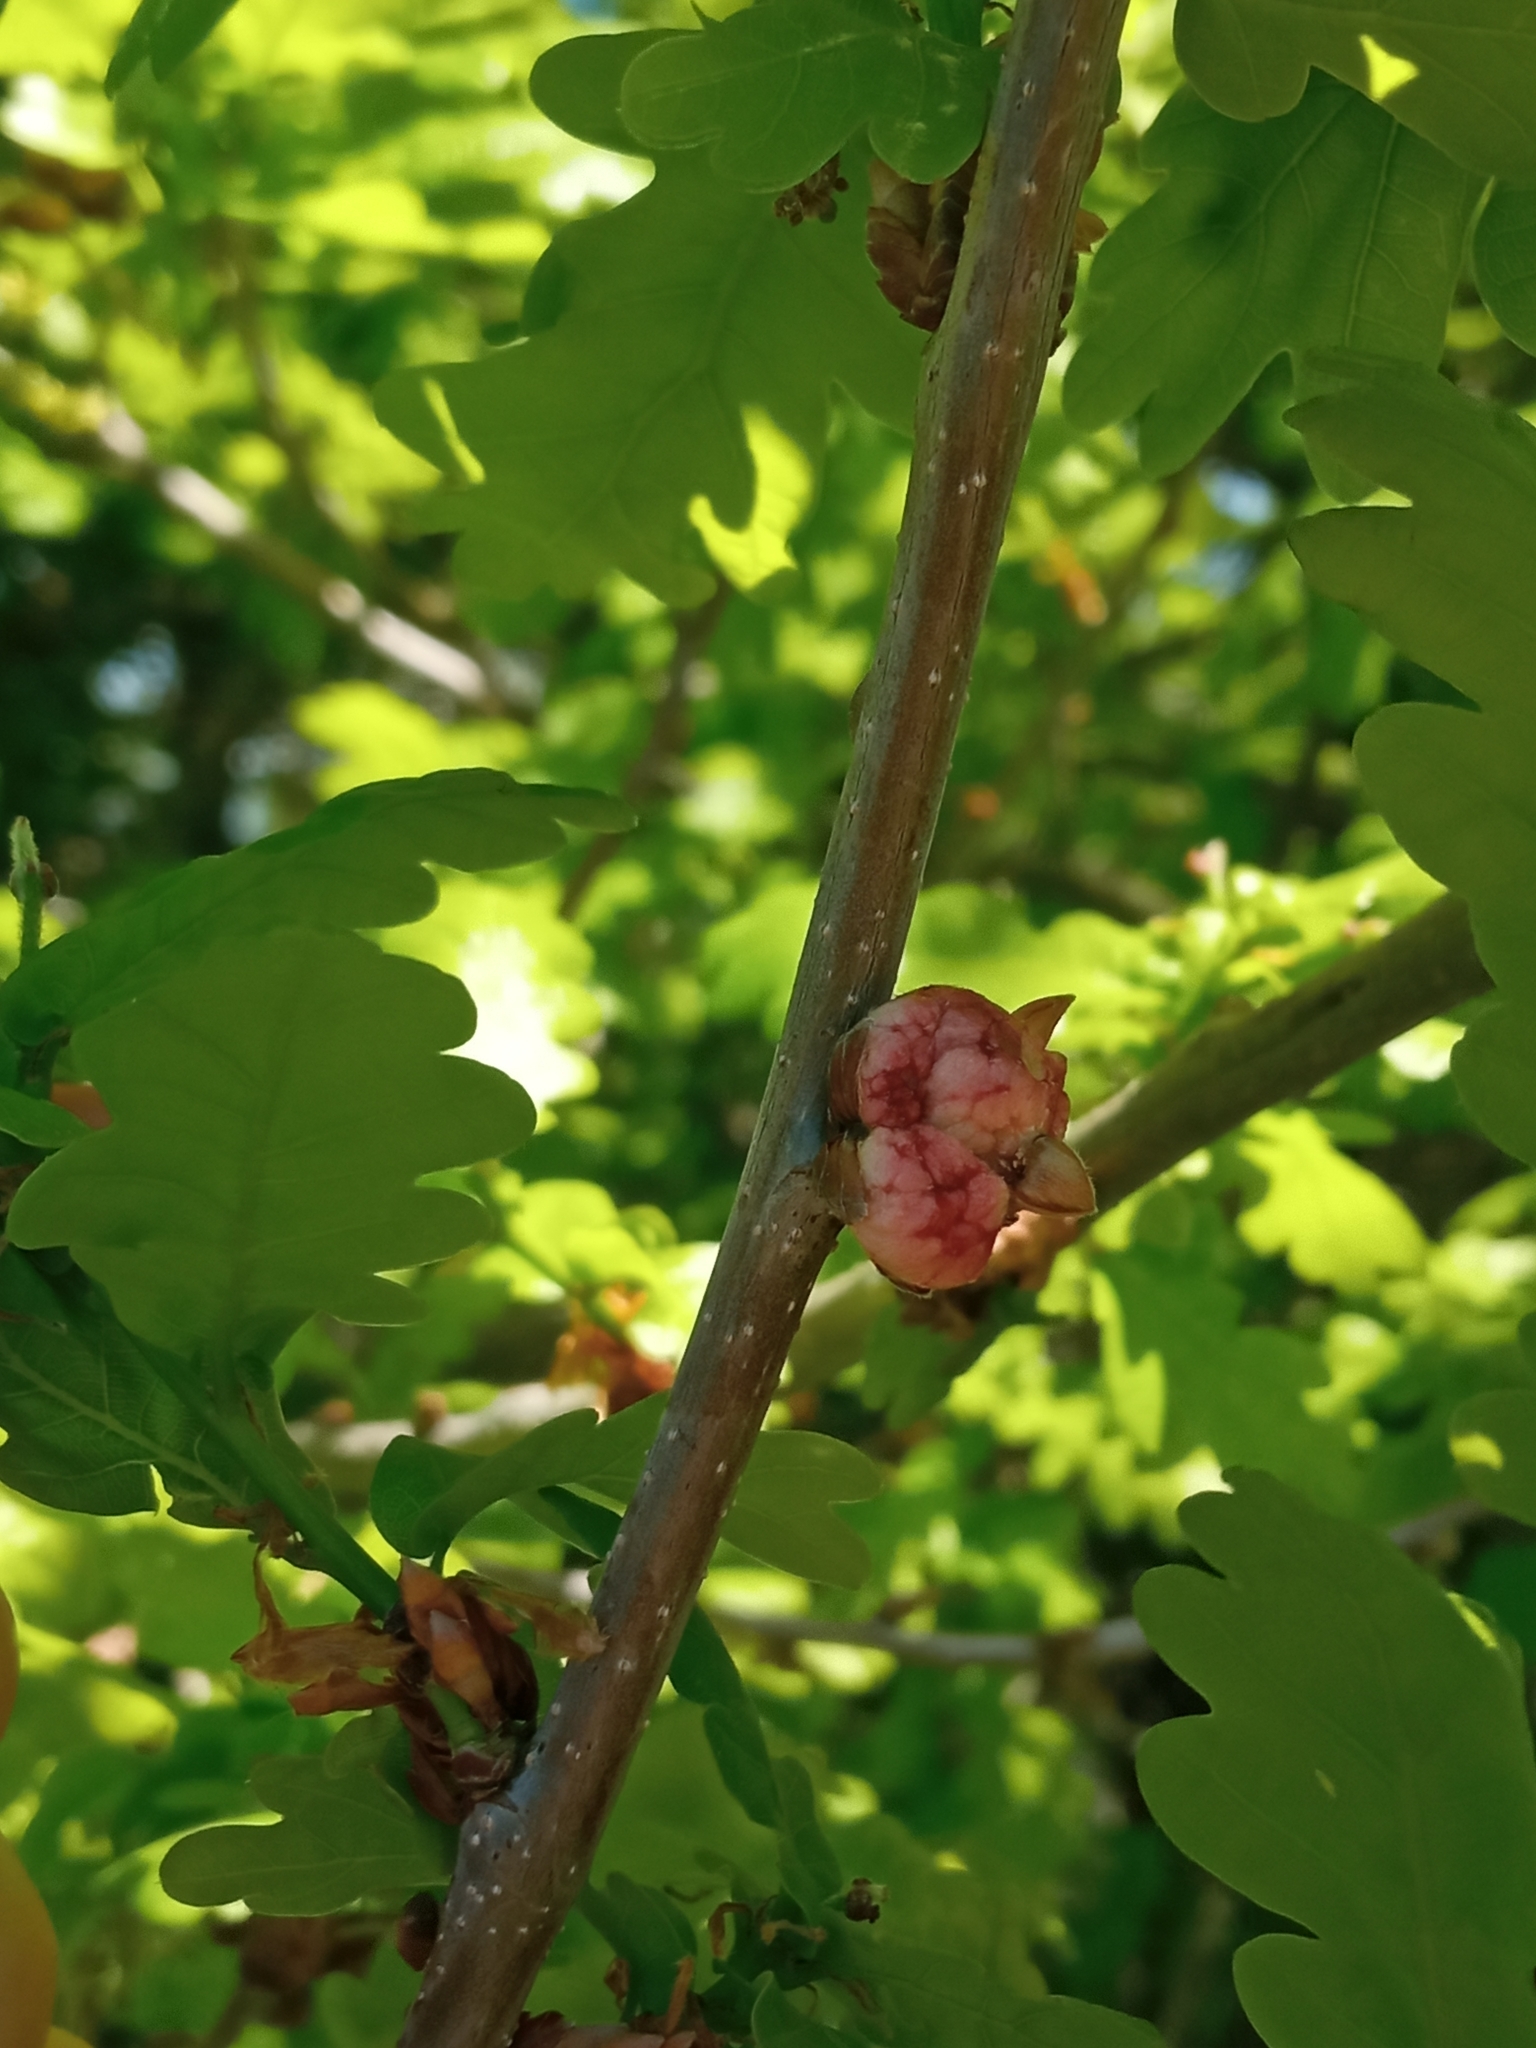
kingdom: Animalia
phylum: Arthropoda
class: Insecta
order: Hymenoptera
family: Cynipidae
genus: Biorhiza
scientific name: Biorhiza pallida
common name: Oak apple
